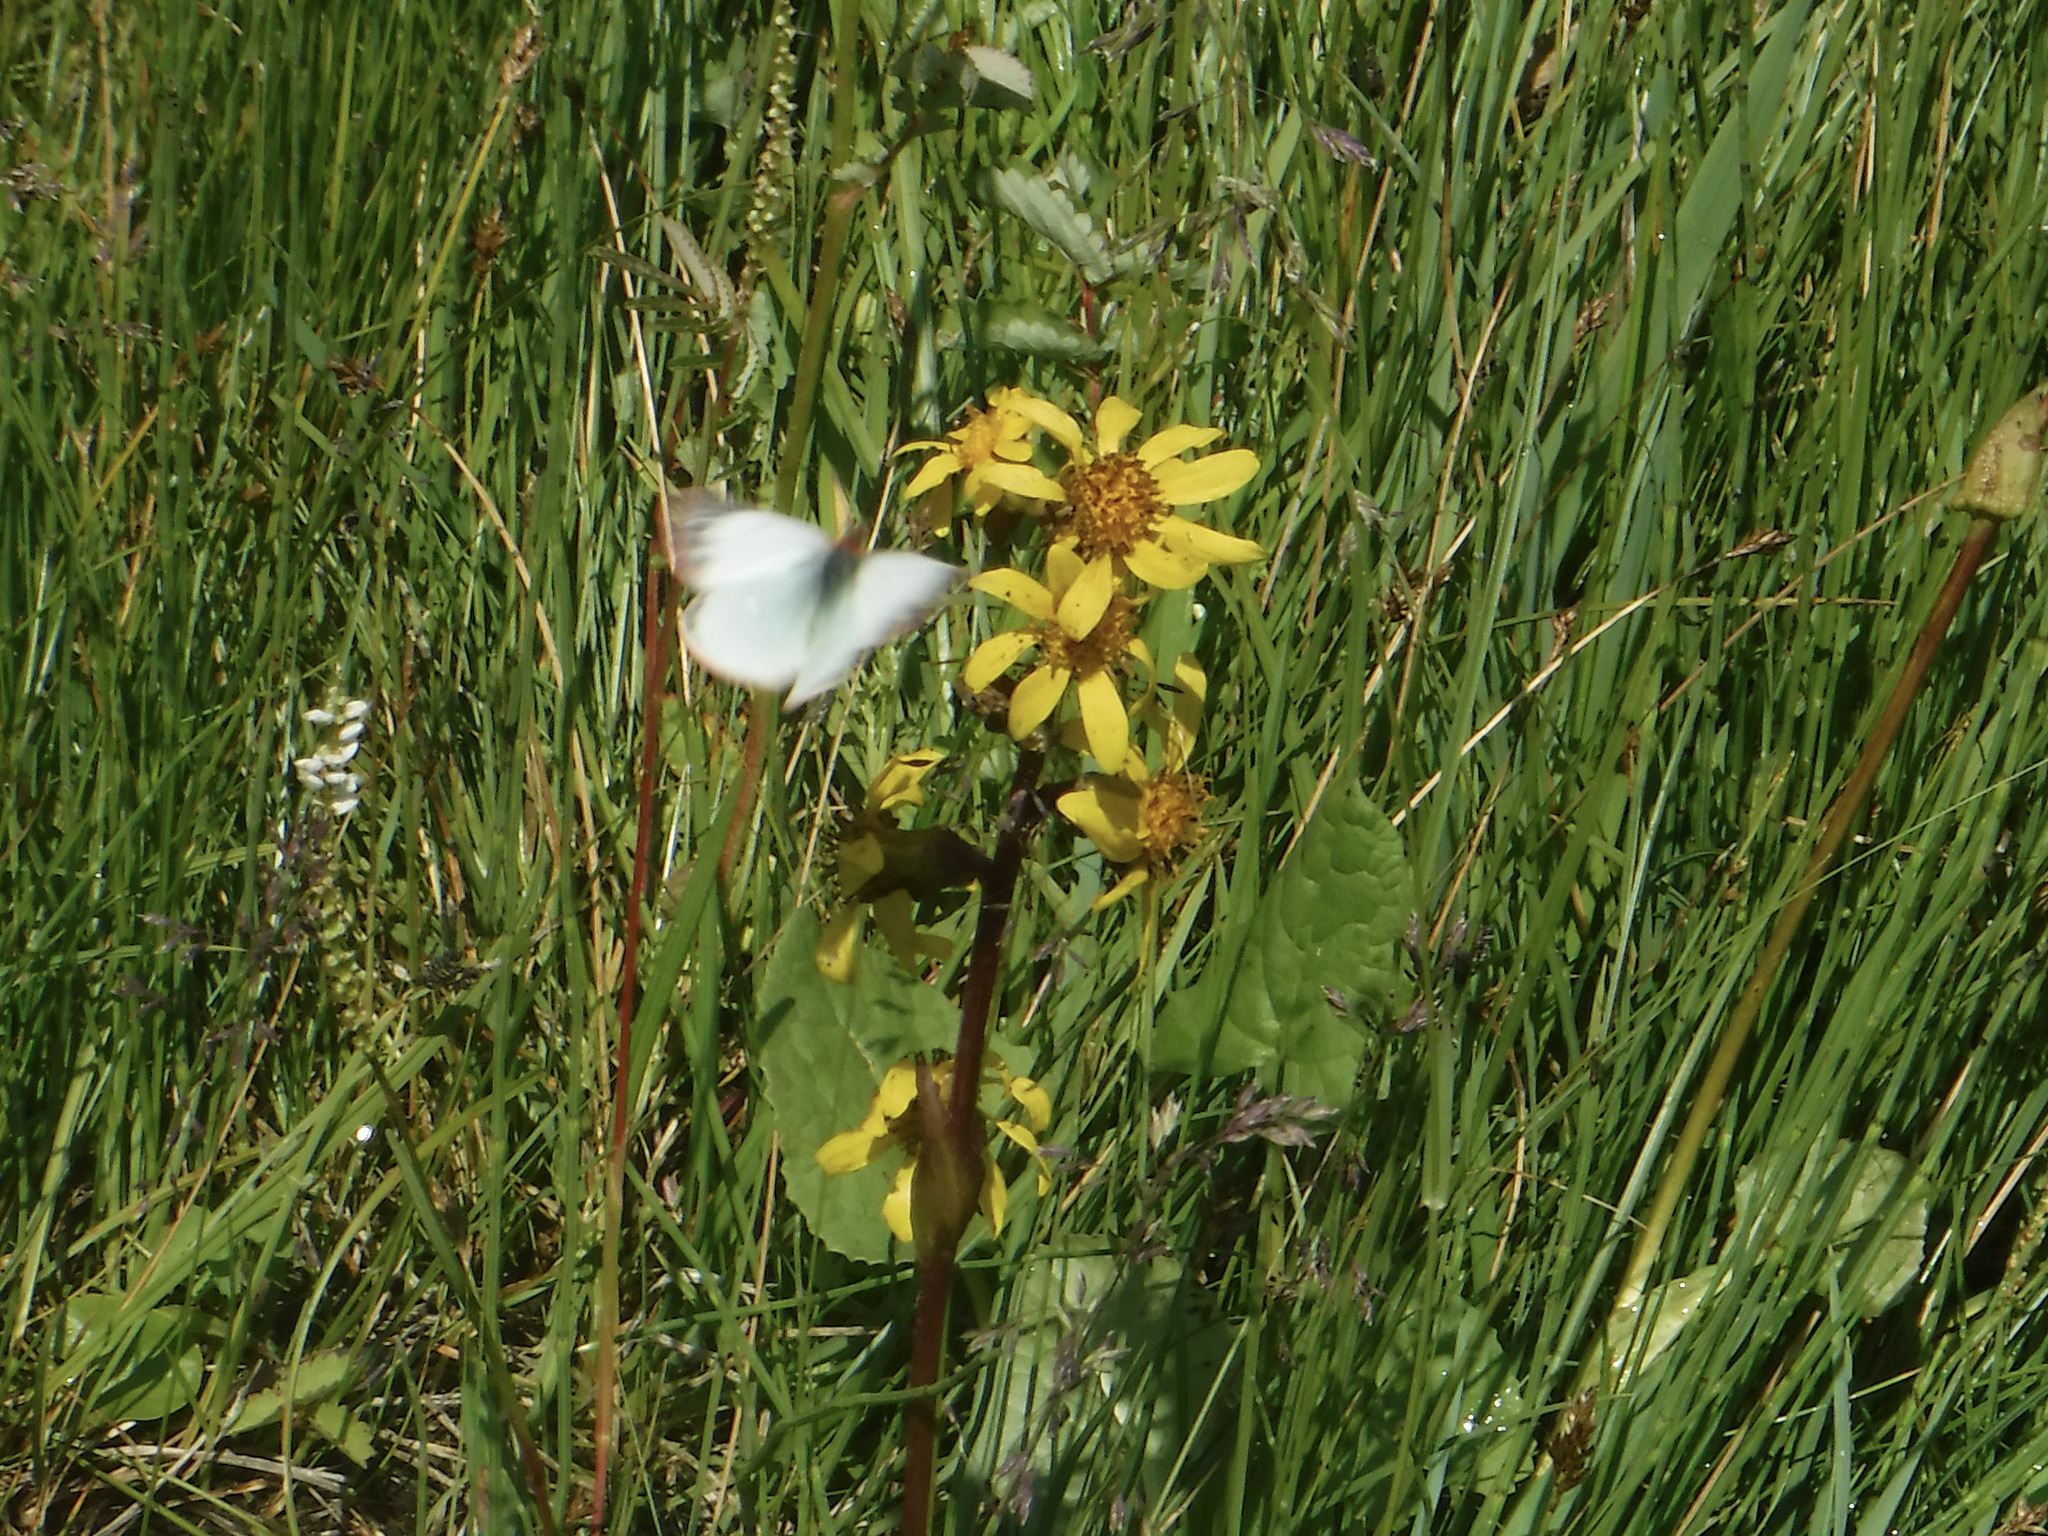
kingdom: Plantae
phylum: Tracheophyta
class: Magnoliopsida
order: Asterales
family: Asteraceae
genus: Ligularia
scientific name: Ligularia sibirica
